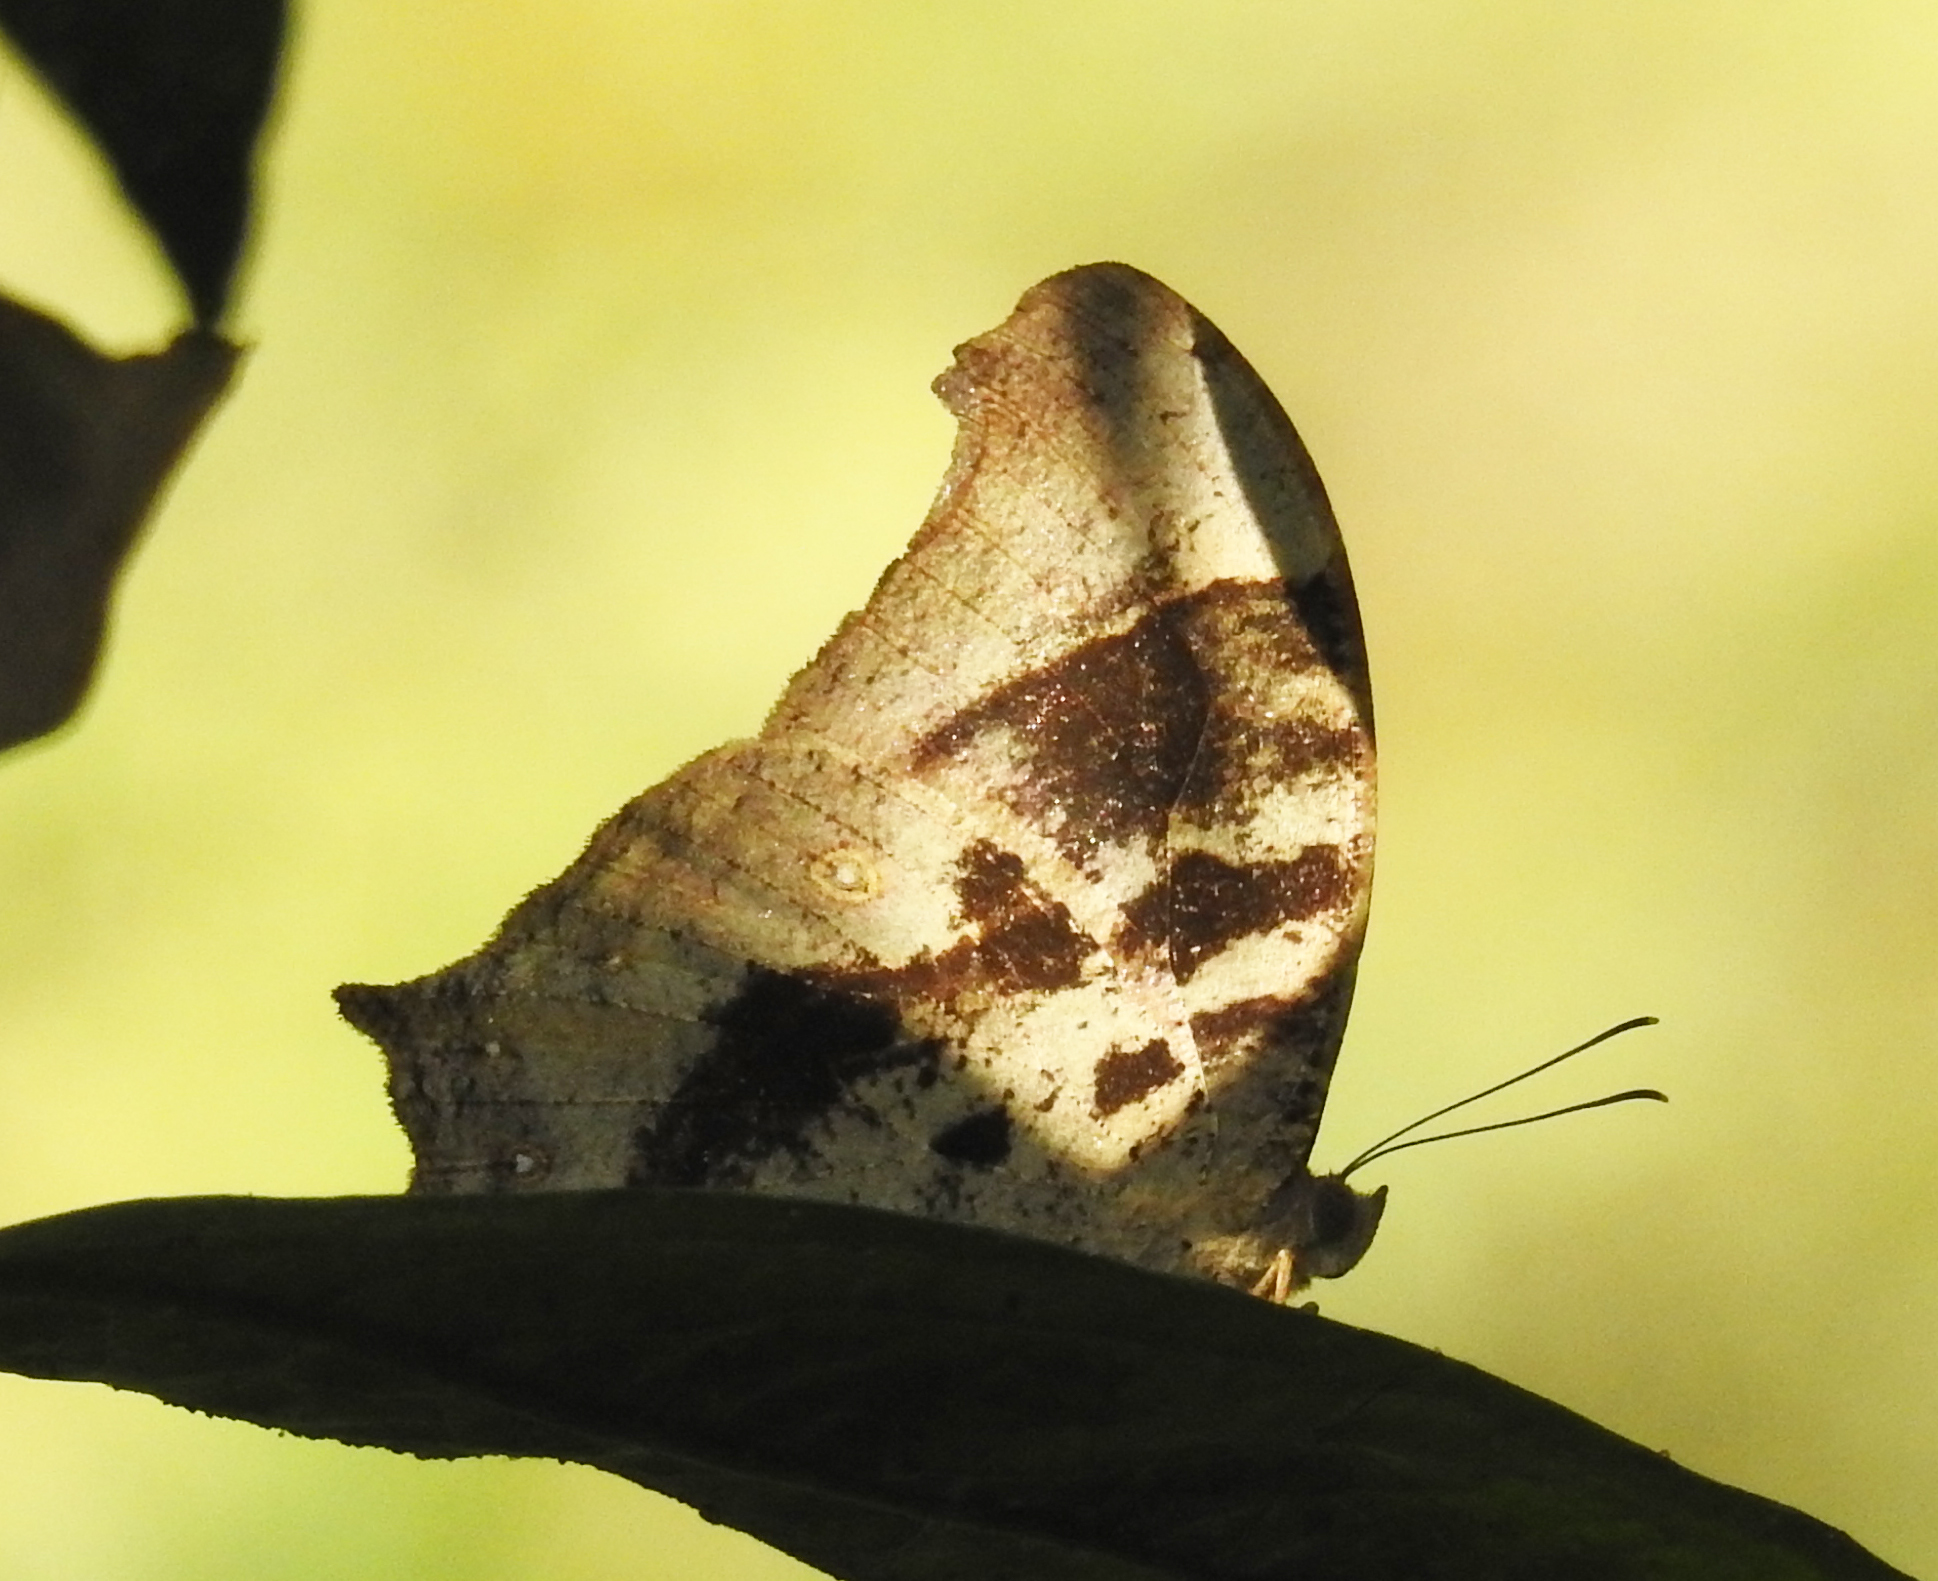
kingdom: Animalia
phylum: Arthropoda
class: Insecta
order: Lepidoptera
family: Nymphalidae
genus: Melanitis
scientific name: Melanitis leda
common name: Twilight brown
